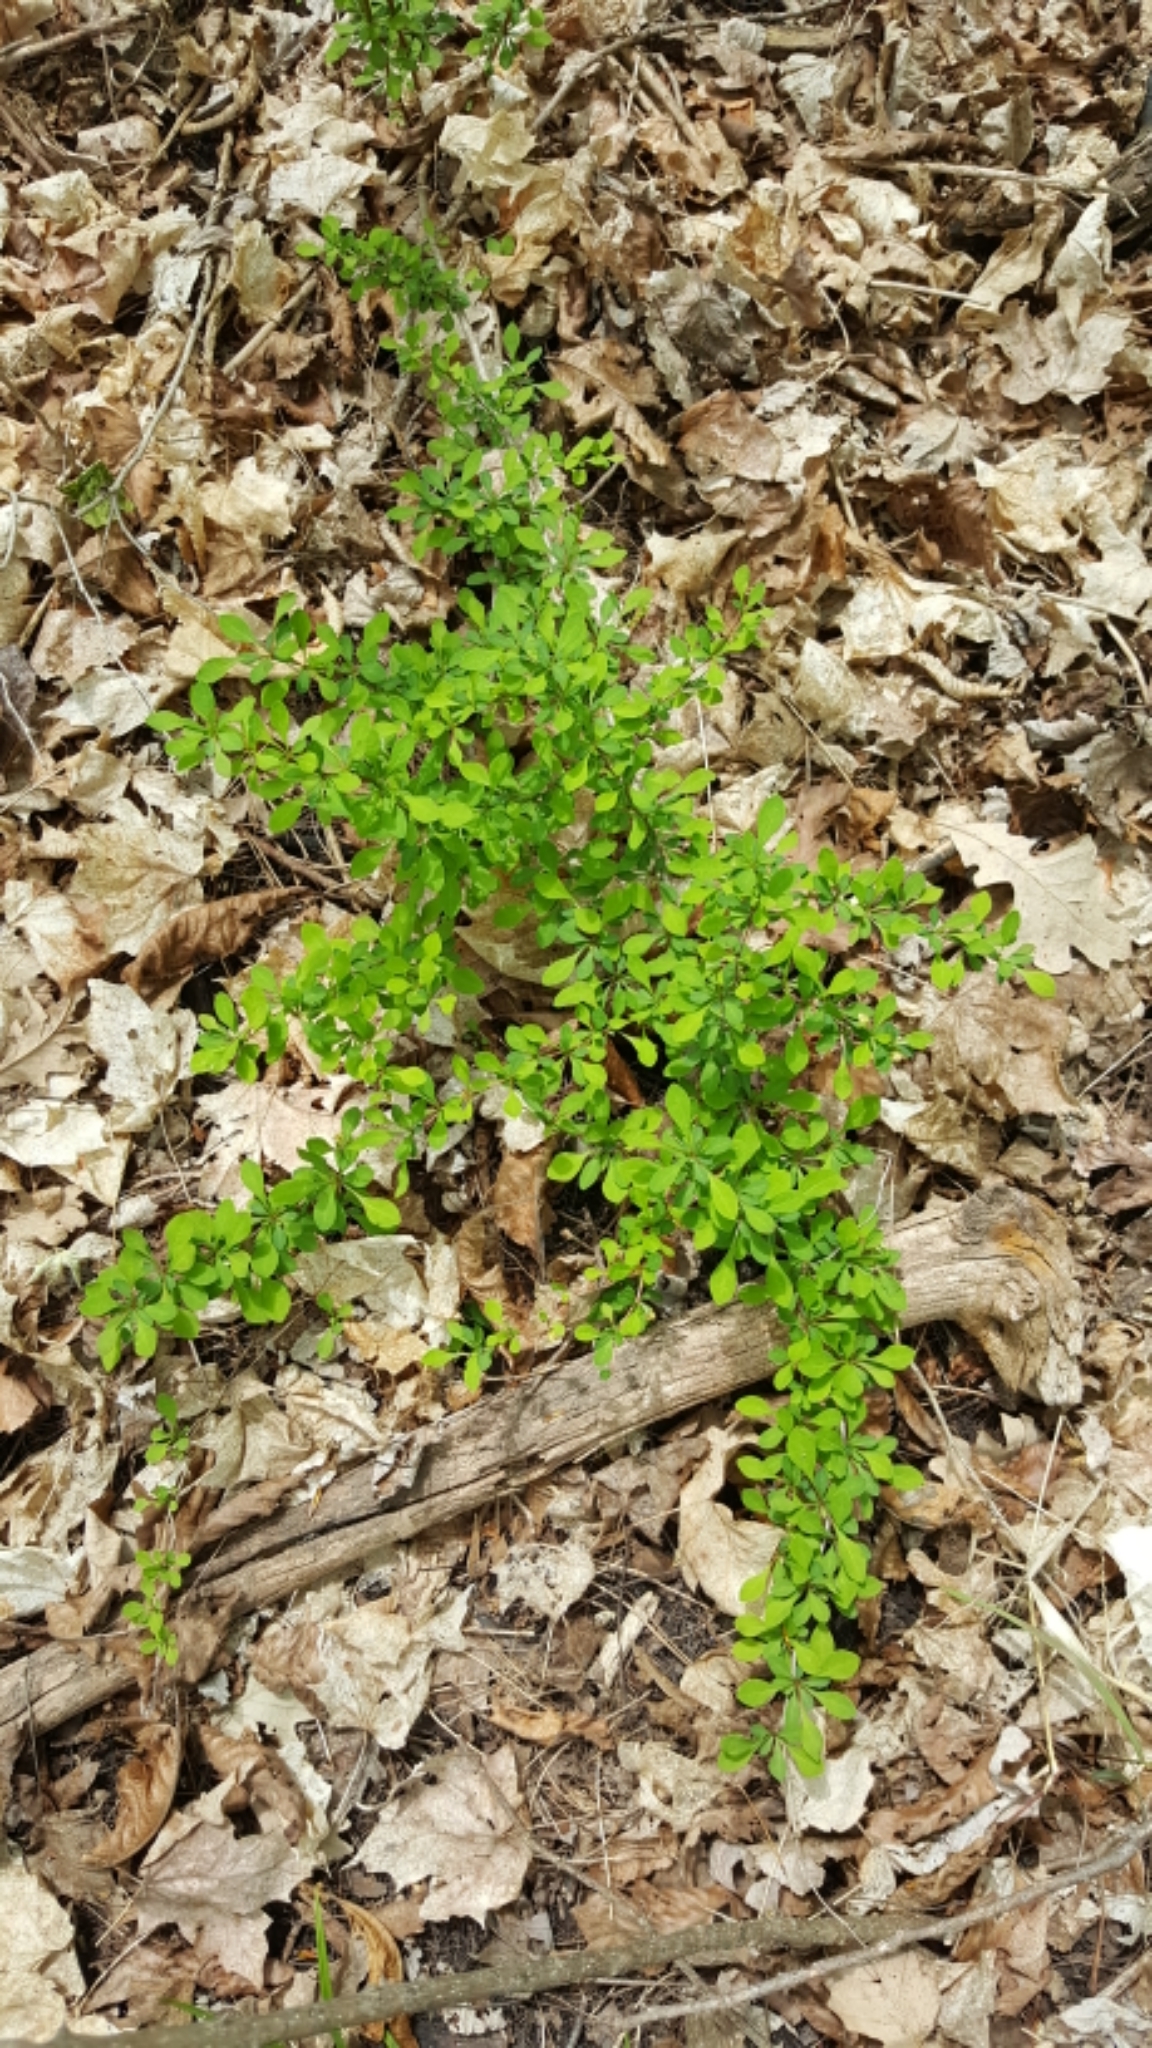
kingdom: Plantae
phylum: Tracheophyta
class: Magnoliopsida
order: Ranunculales
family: Berberidaceae
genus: Berberis
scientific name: Berberis thunbergii
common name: Japanese barberry
